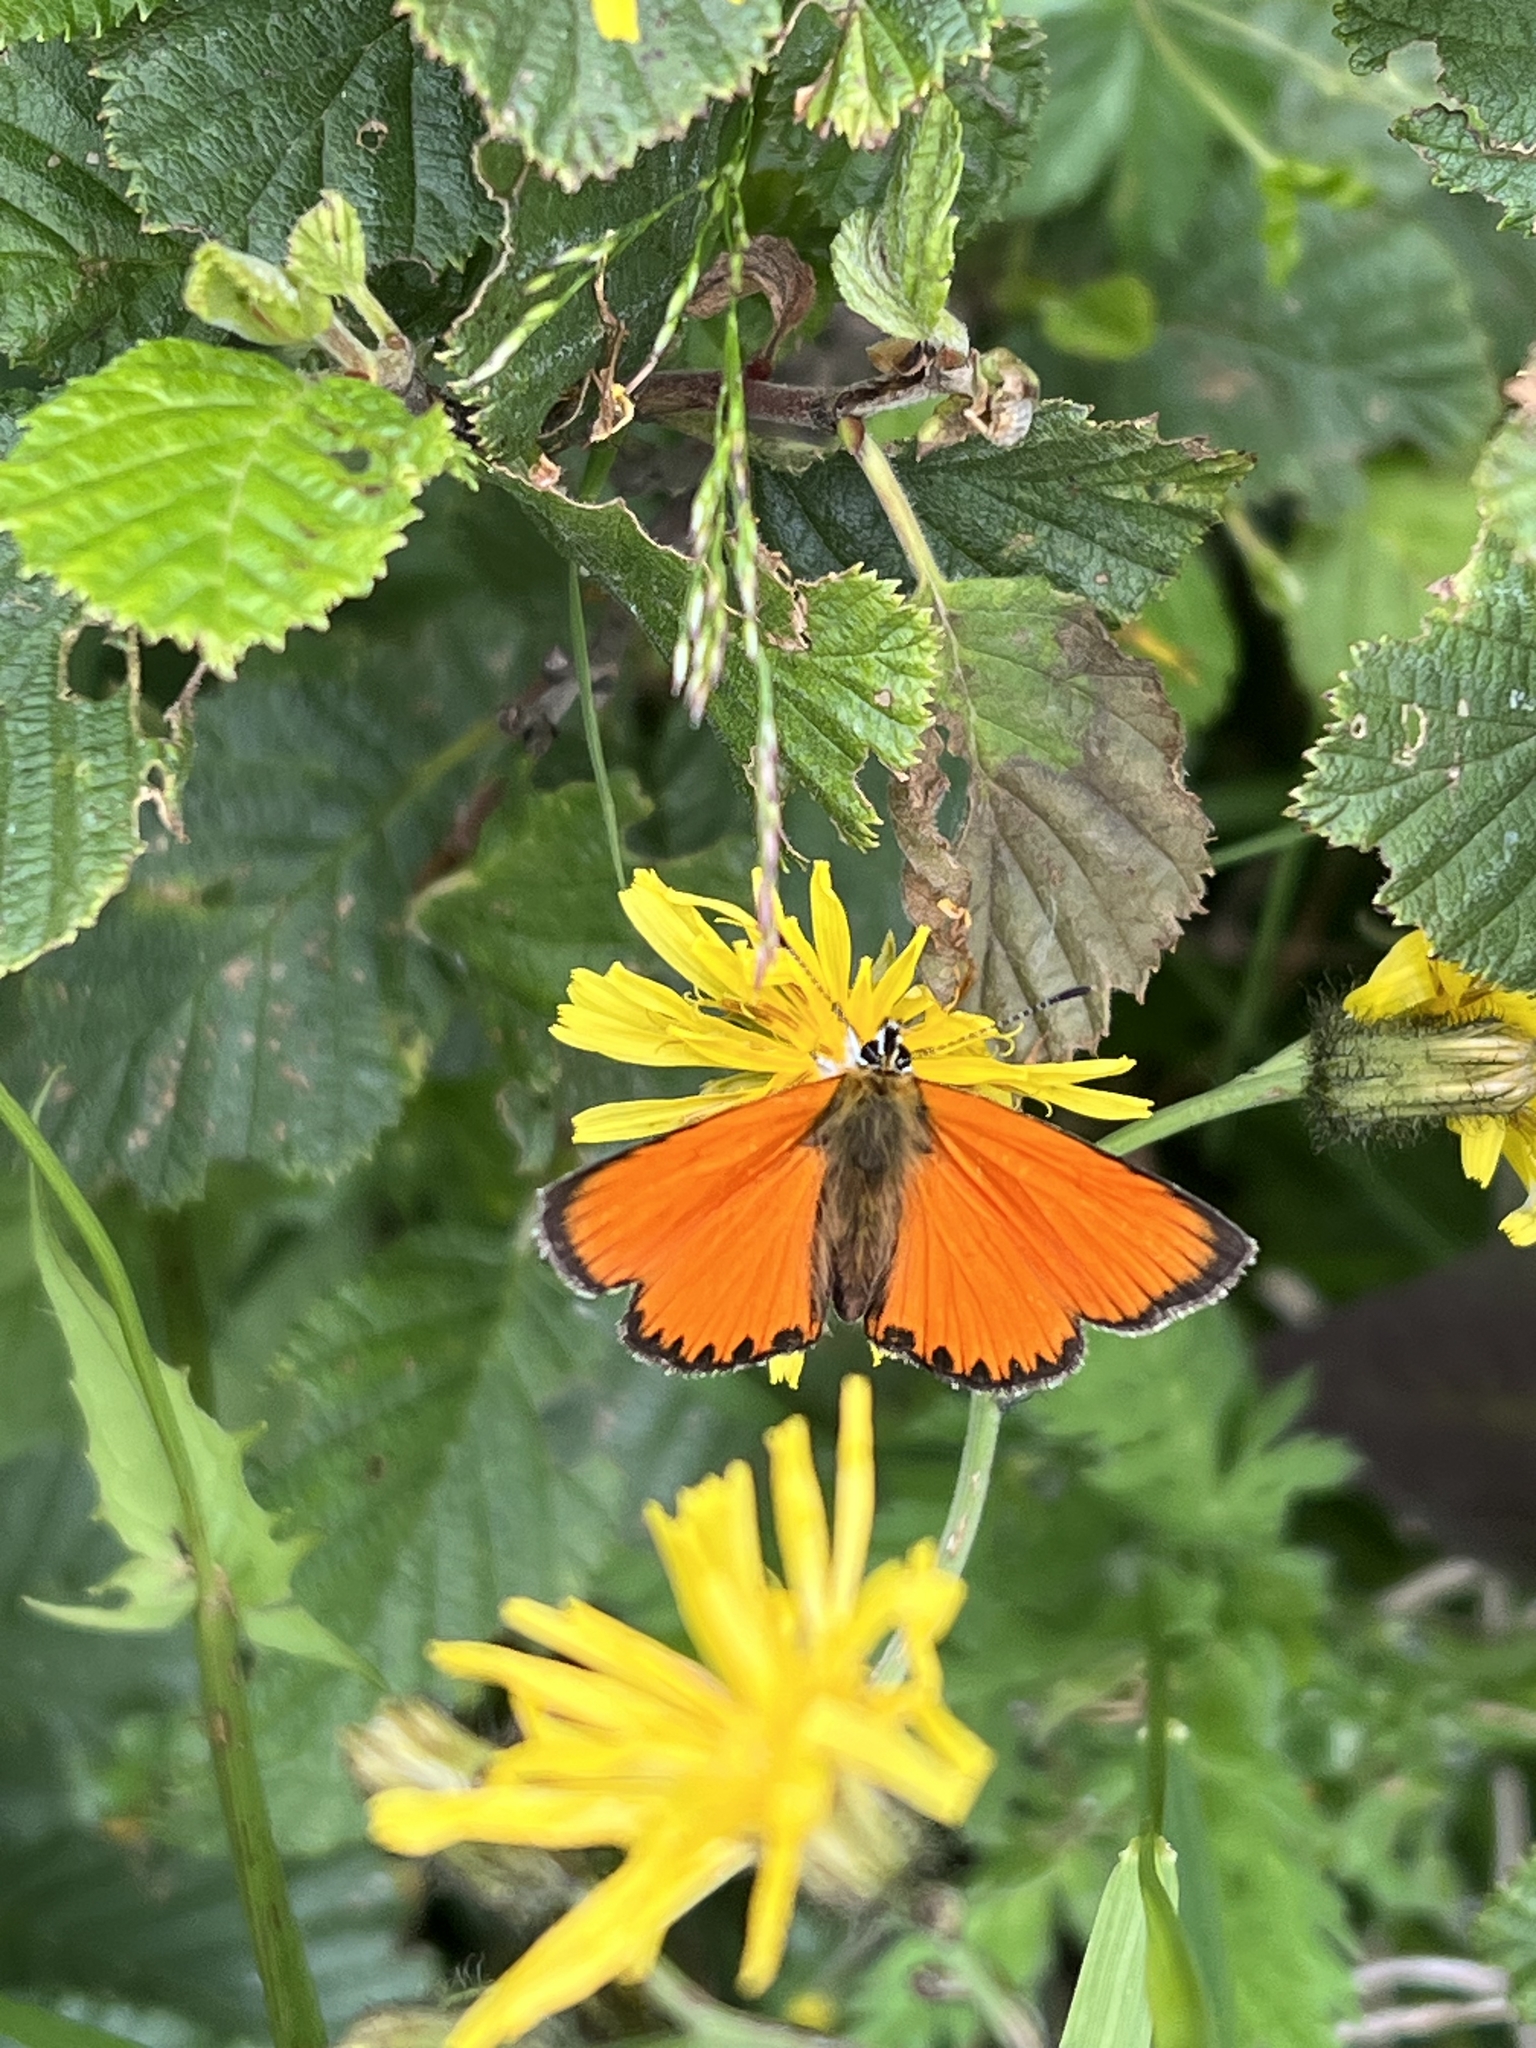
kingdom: Animalia
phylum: Arthropoda
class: Insecta
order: Lepidoptera
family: Lycaenidae
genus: Lycaena
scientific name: Lycaena virgaureae
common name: Scarce copper
